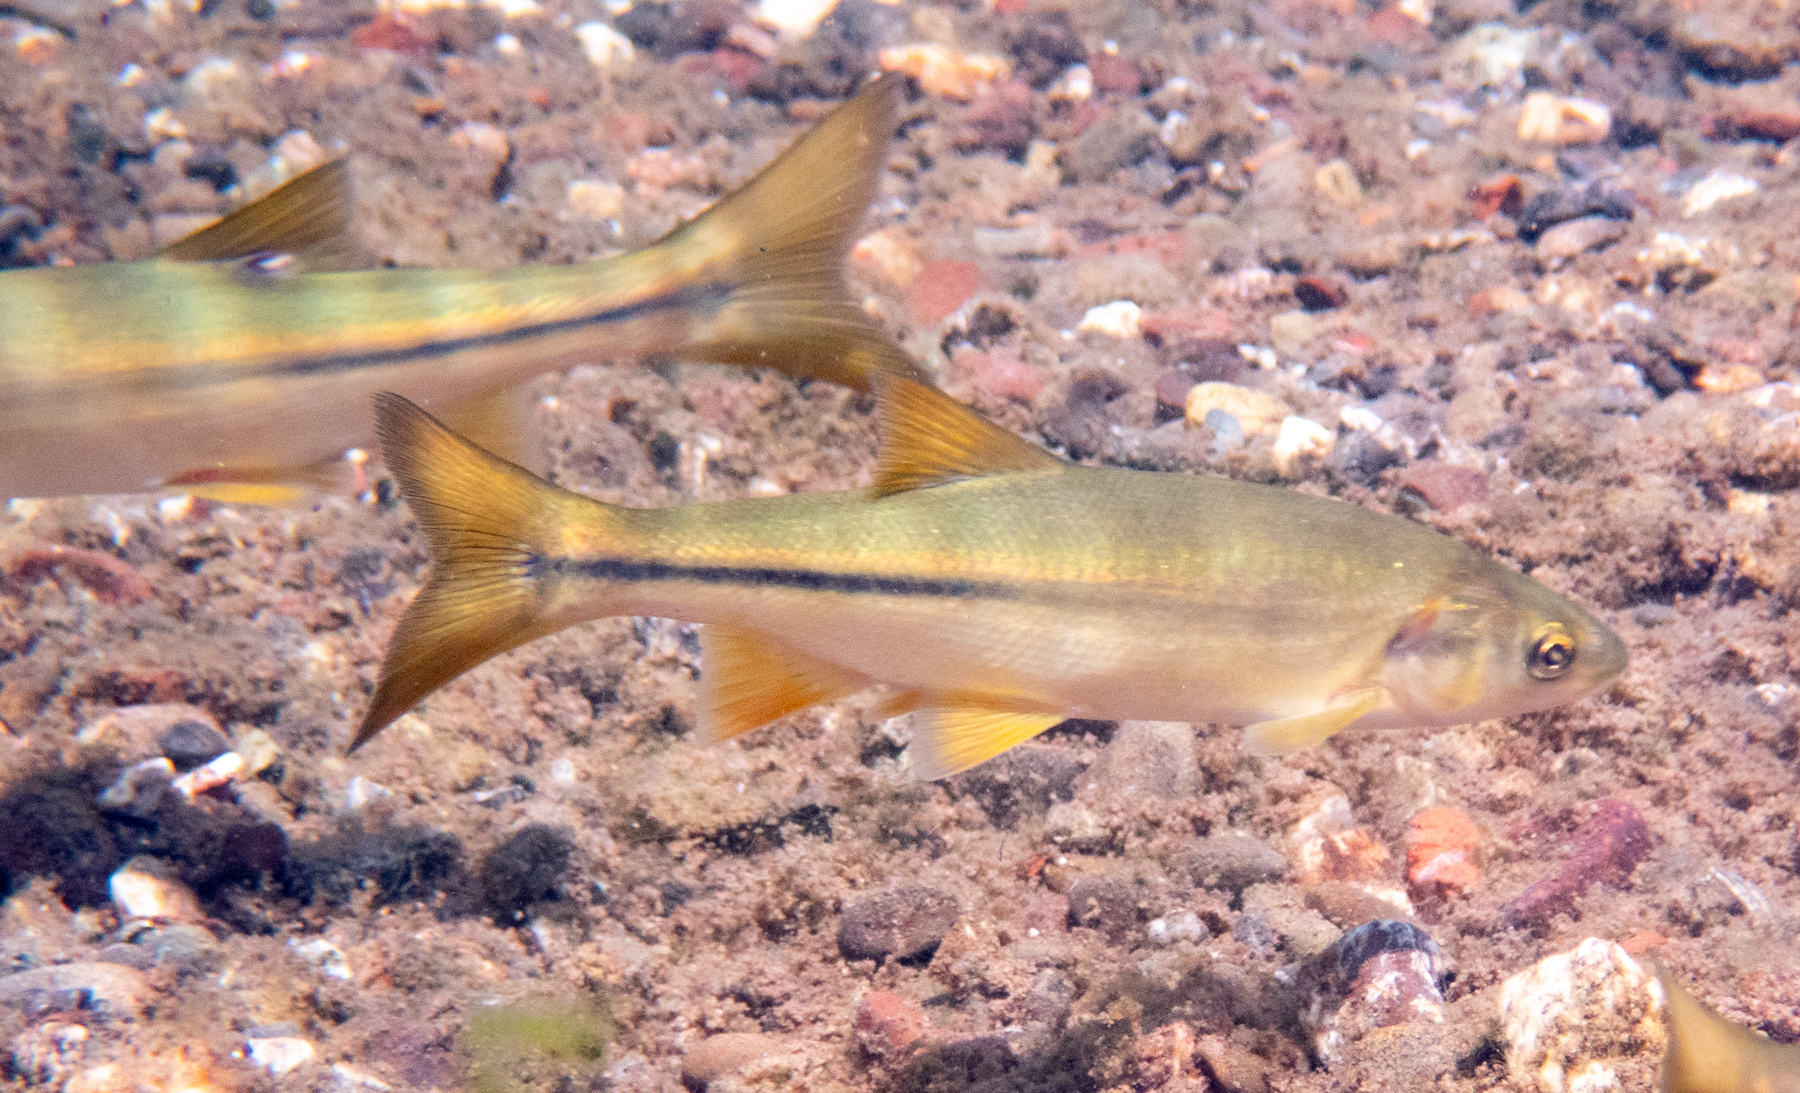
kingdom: Animalia
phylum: Chordata
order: Cypriniformes
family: Cyprinidae
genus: Mylopharodon
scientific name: Mylopharodon conocephalus
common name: Hardhead
